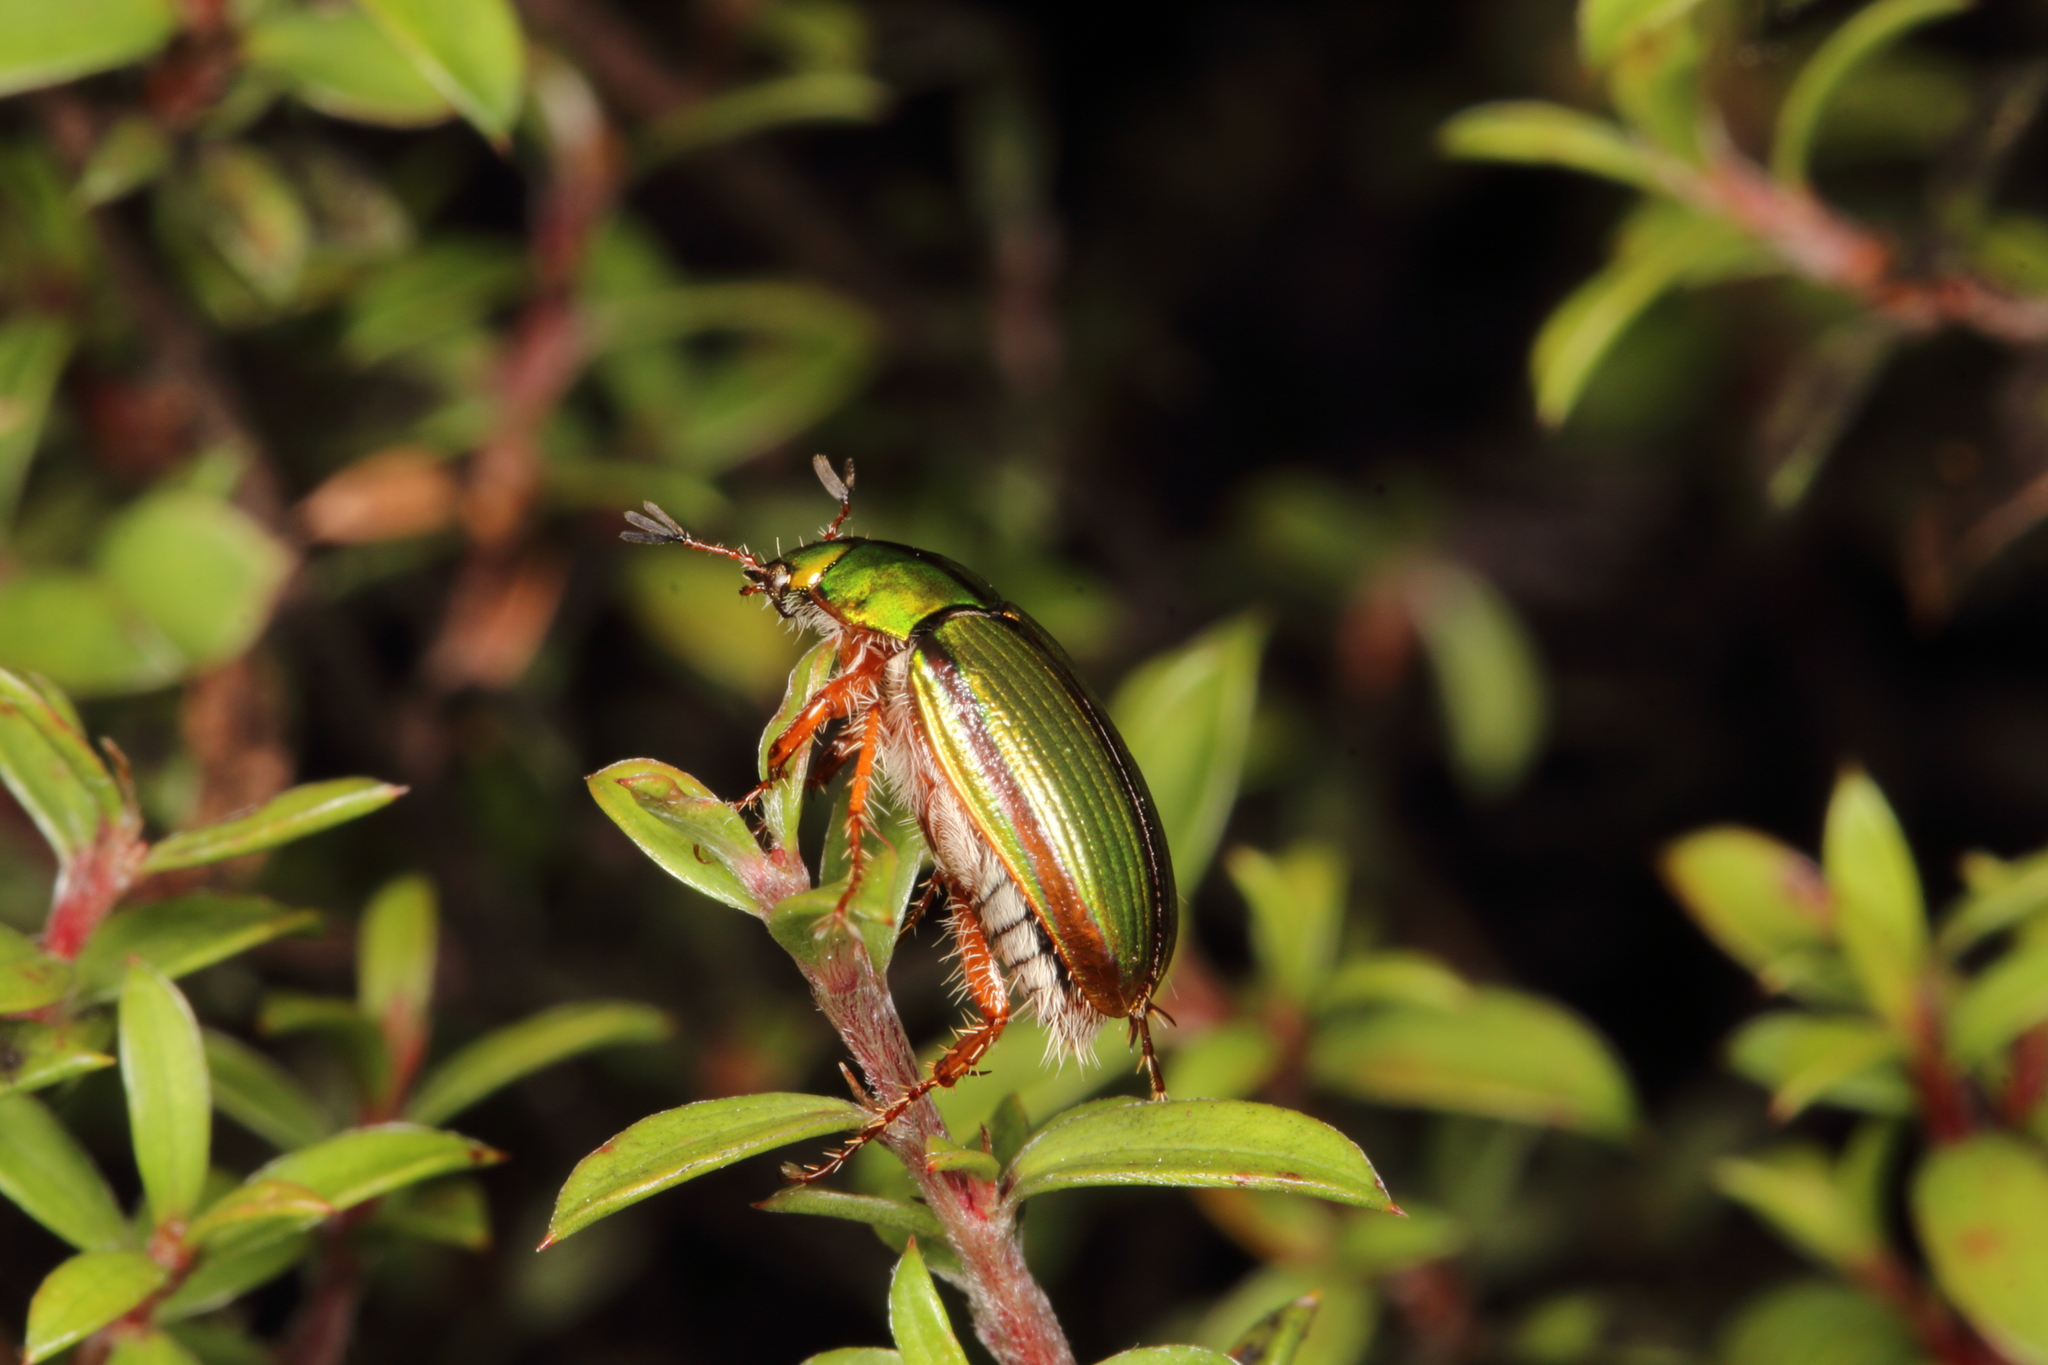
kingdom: Animalia
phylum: Arthropoda
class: Insecta
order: Coleoptera
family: Scarabaeidae
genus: Pyronota
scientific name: Pyronota festiva
